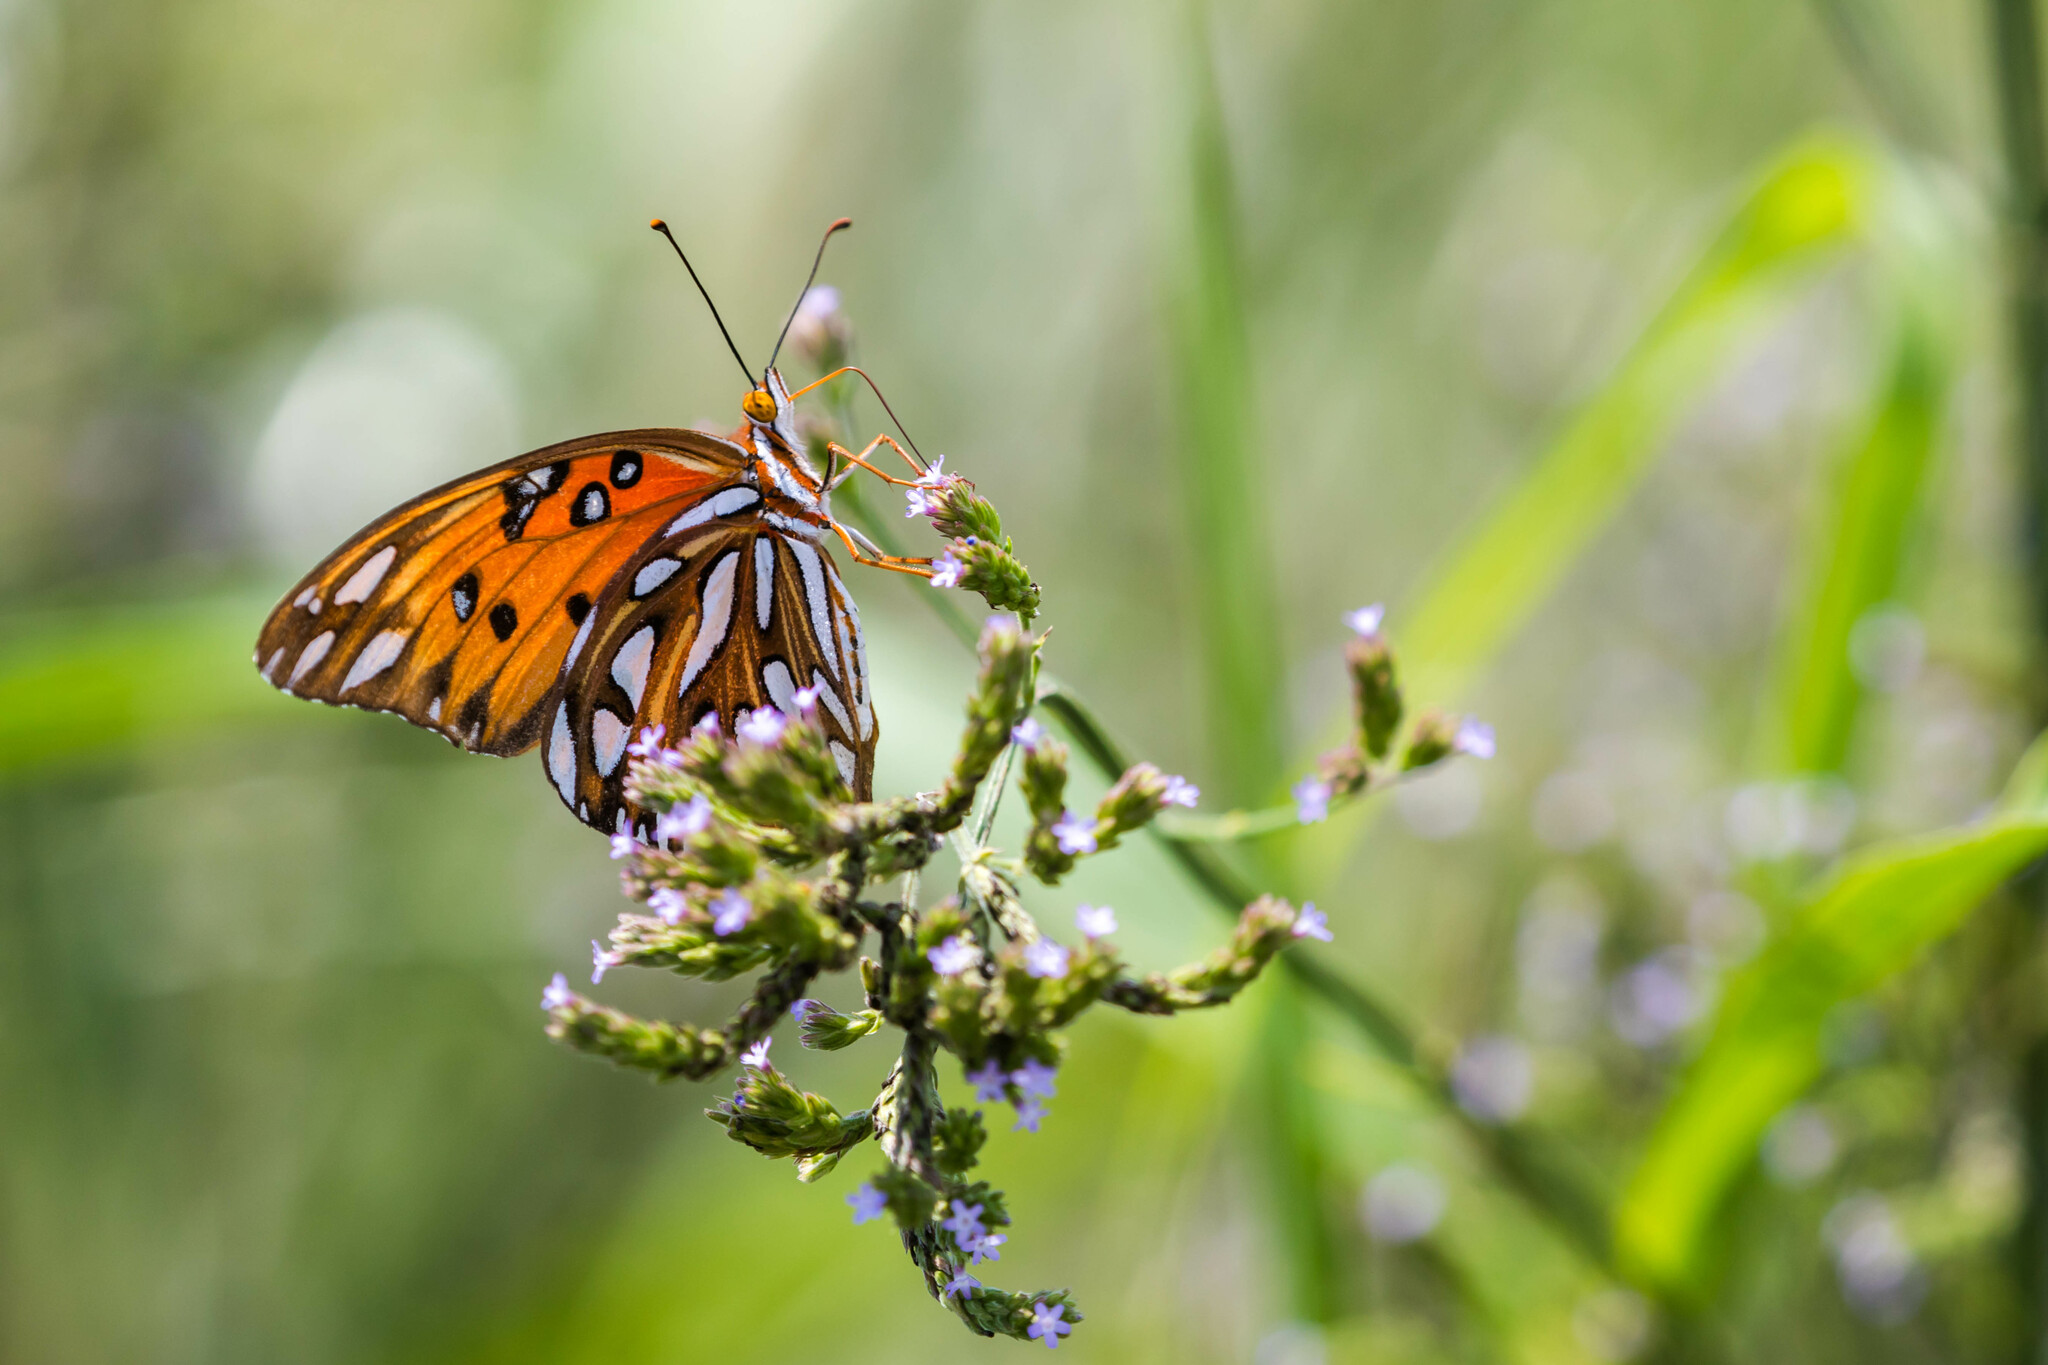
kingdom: Animalia
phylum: Arthropoda
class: Insecta
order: Lepidoptera
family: Nymphalidae
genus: Dione
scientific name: Dione vanillae
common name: Gulf fritillary
